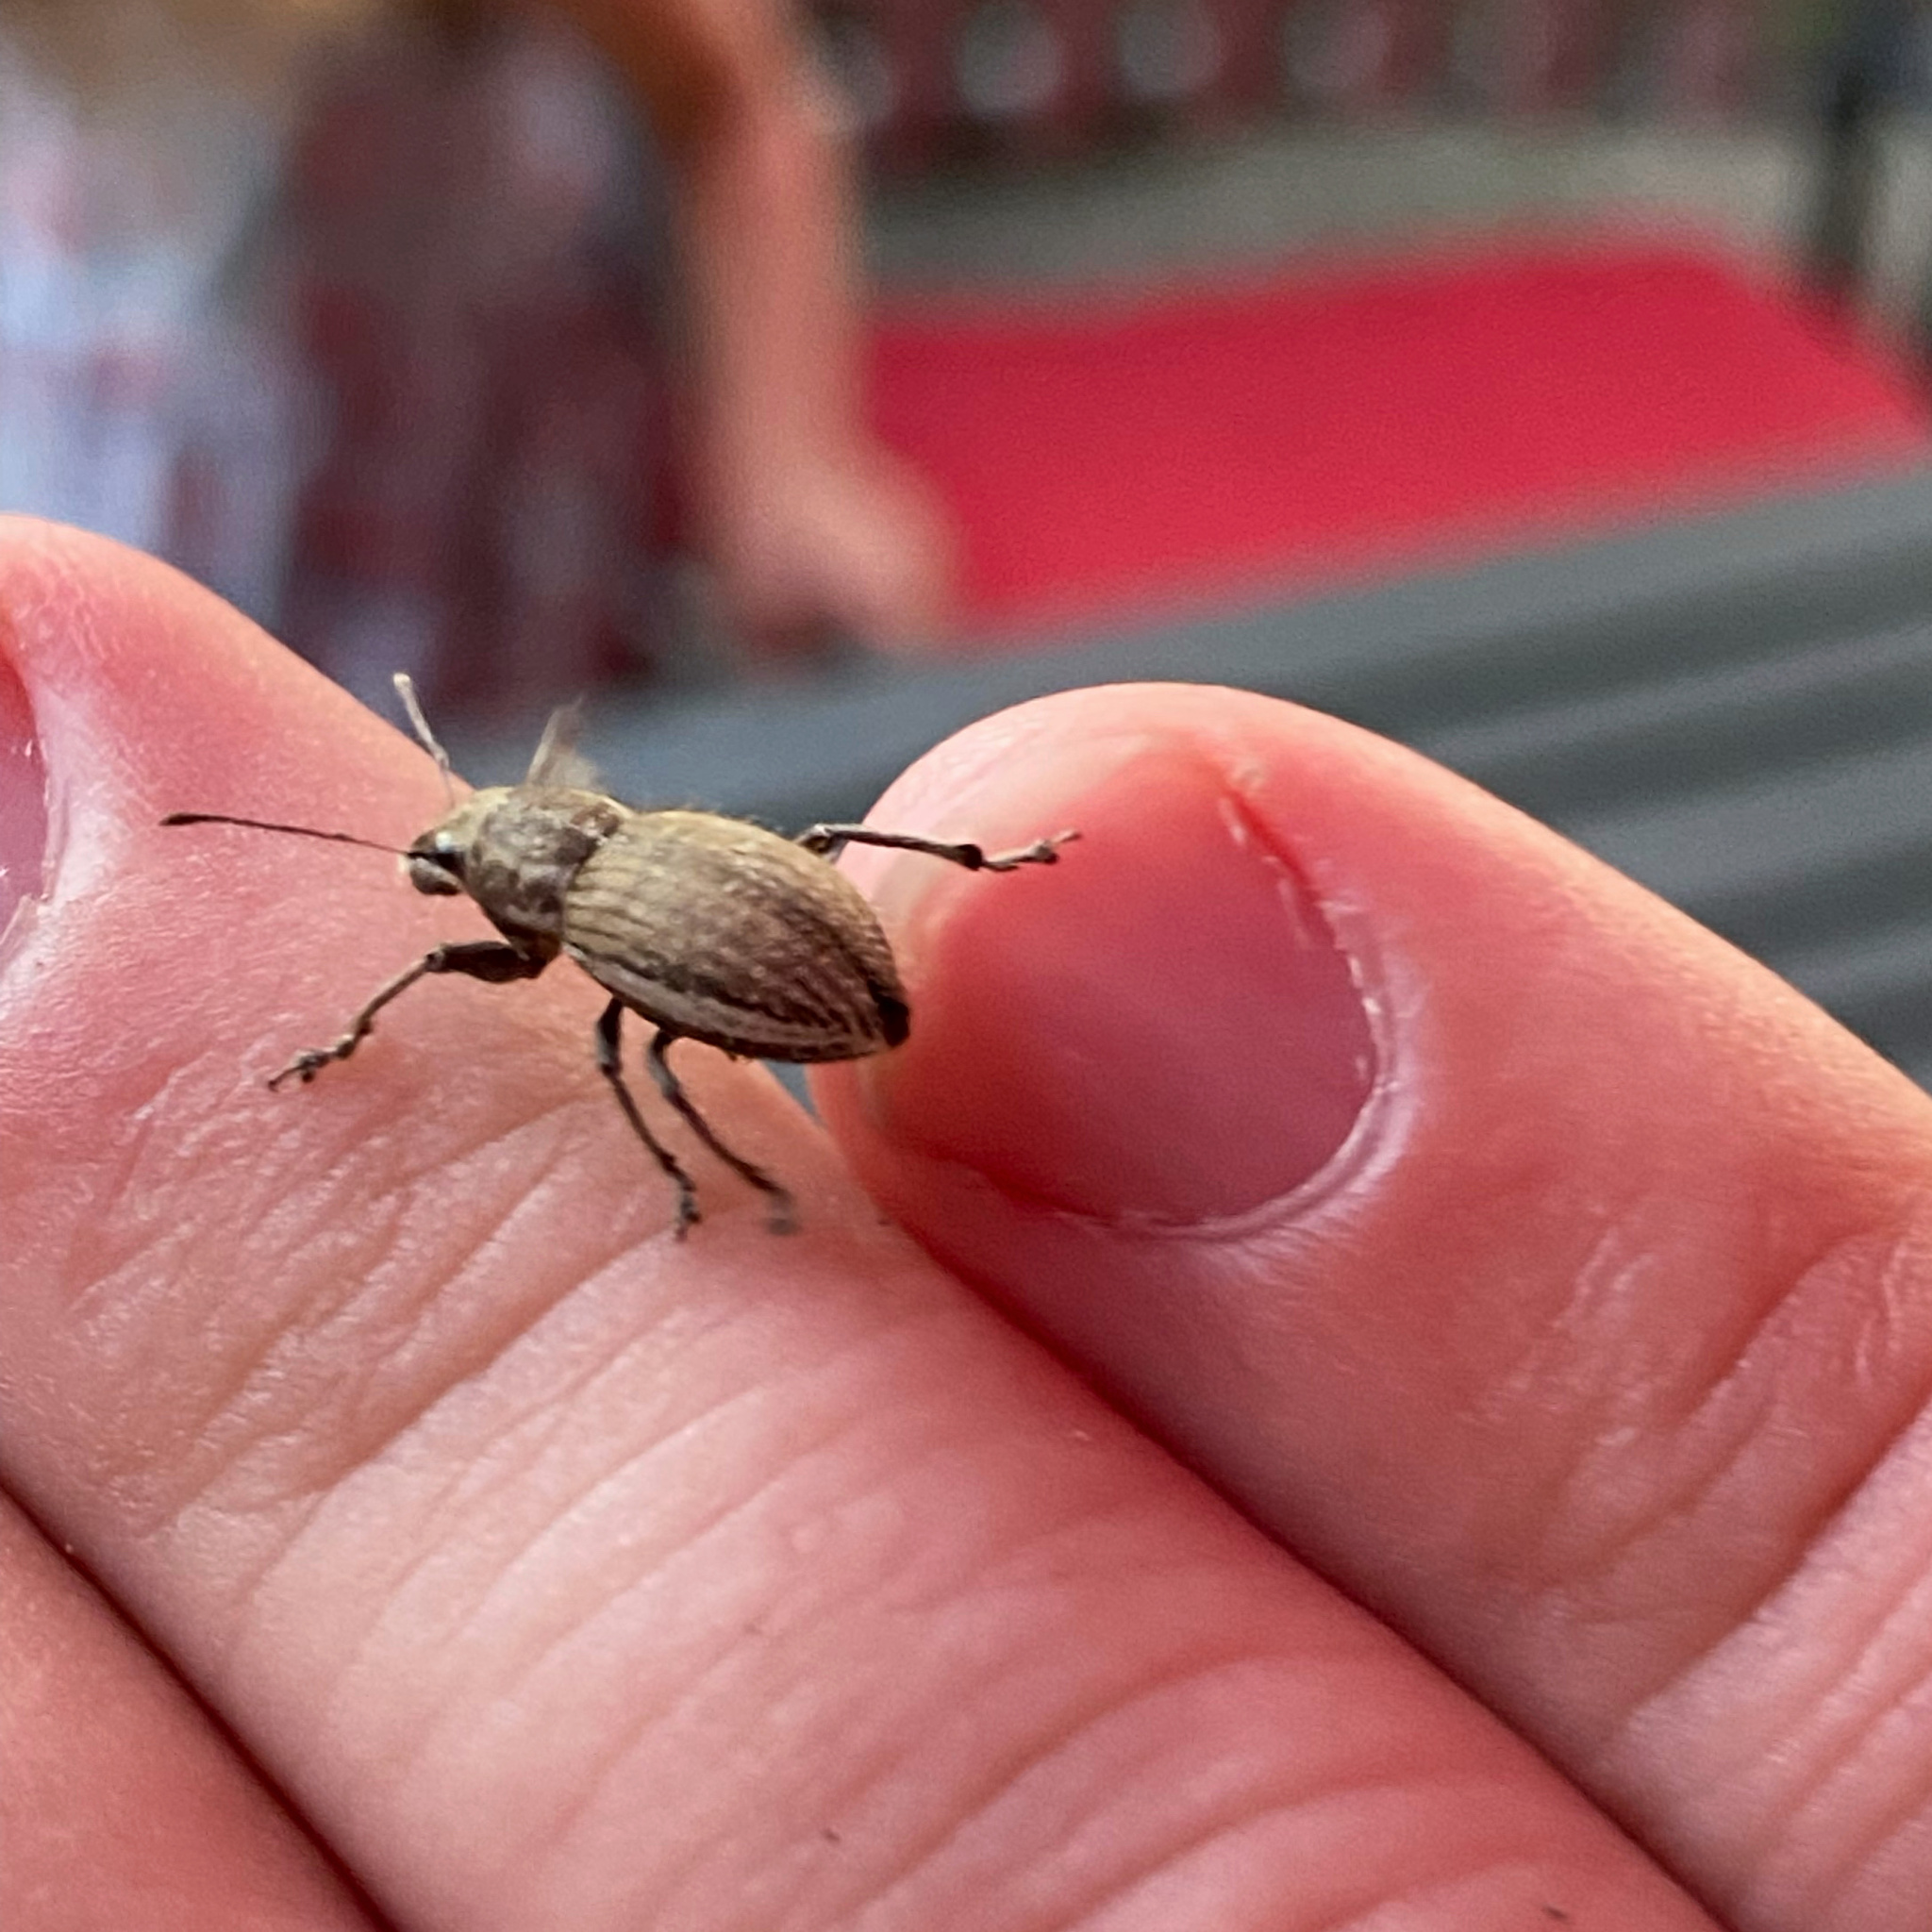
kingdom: Animalia
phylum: Arthropoda
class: Insecta
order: Coleoptera
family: Curculionidae
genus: Naupactus
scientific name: Naupactus leucoloma
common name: Whitefringed beetle
